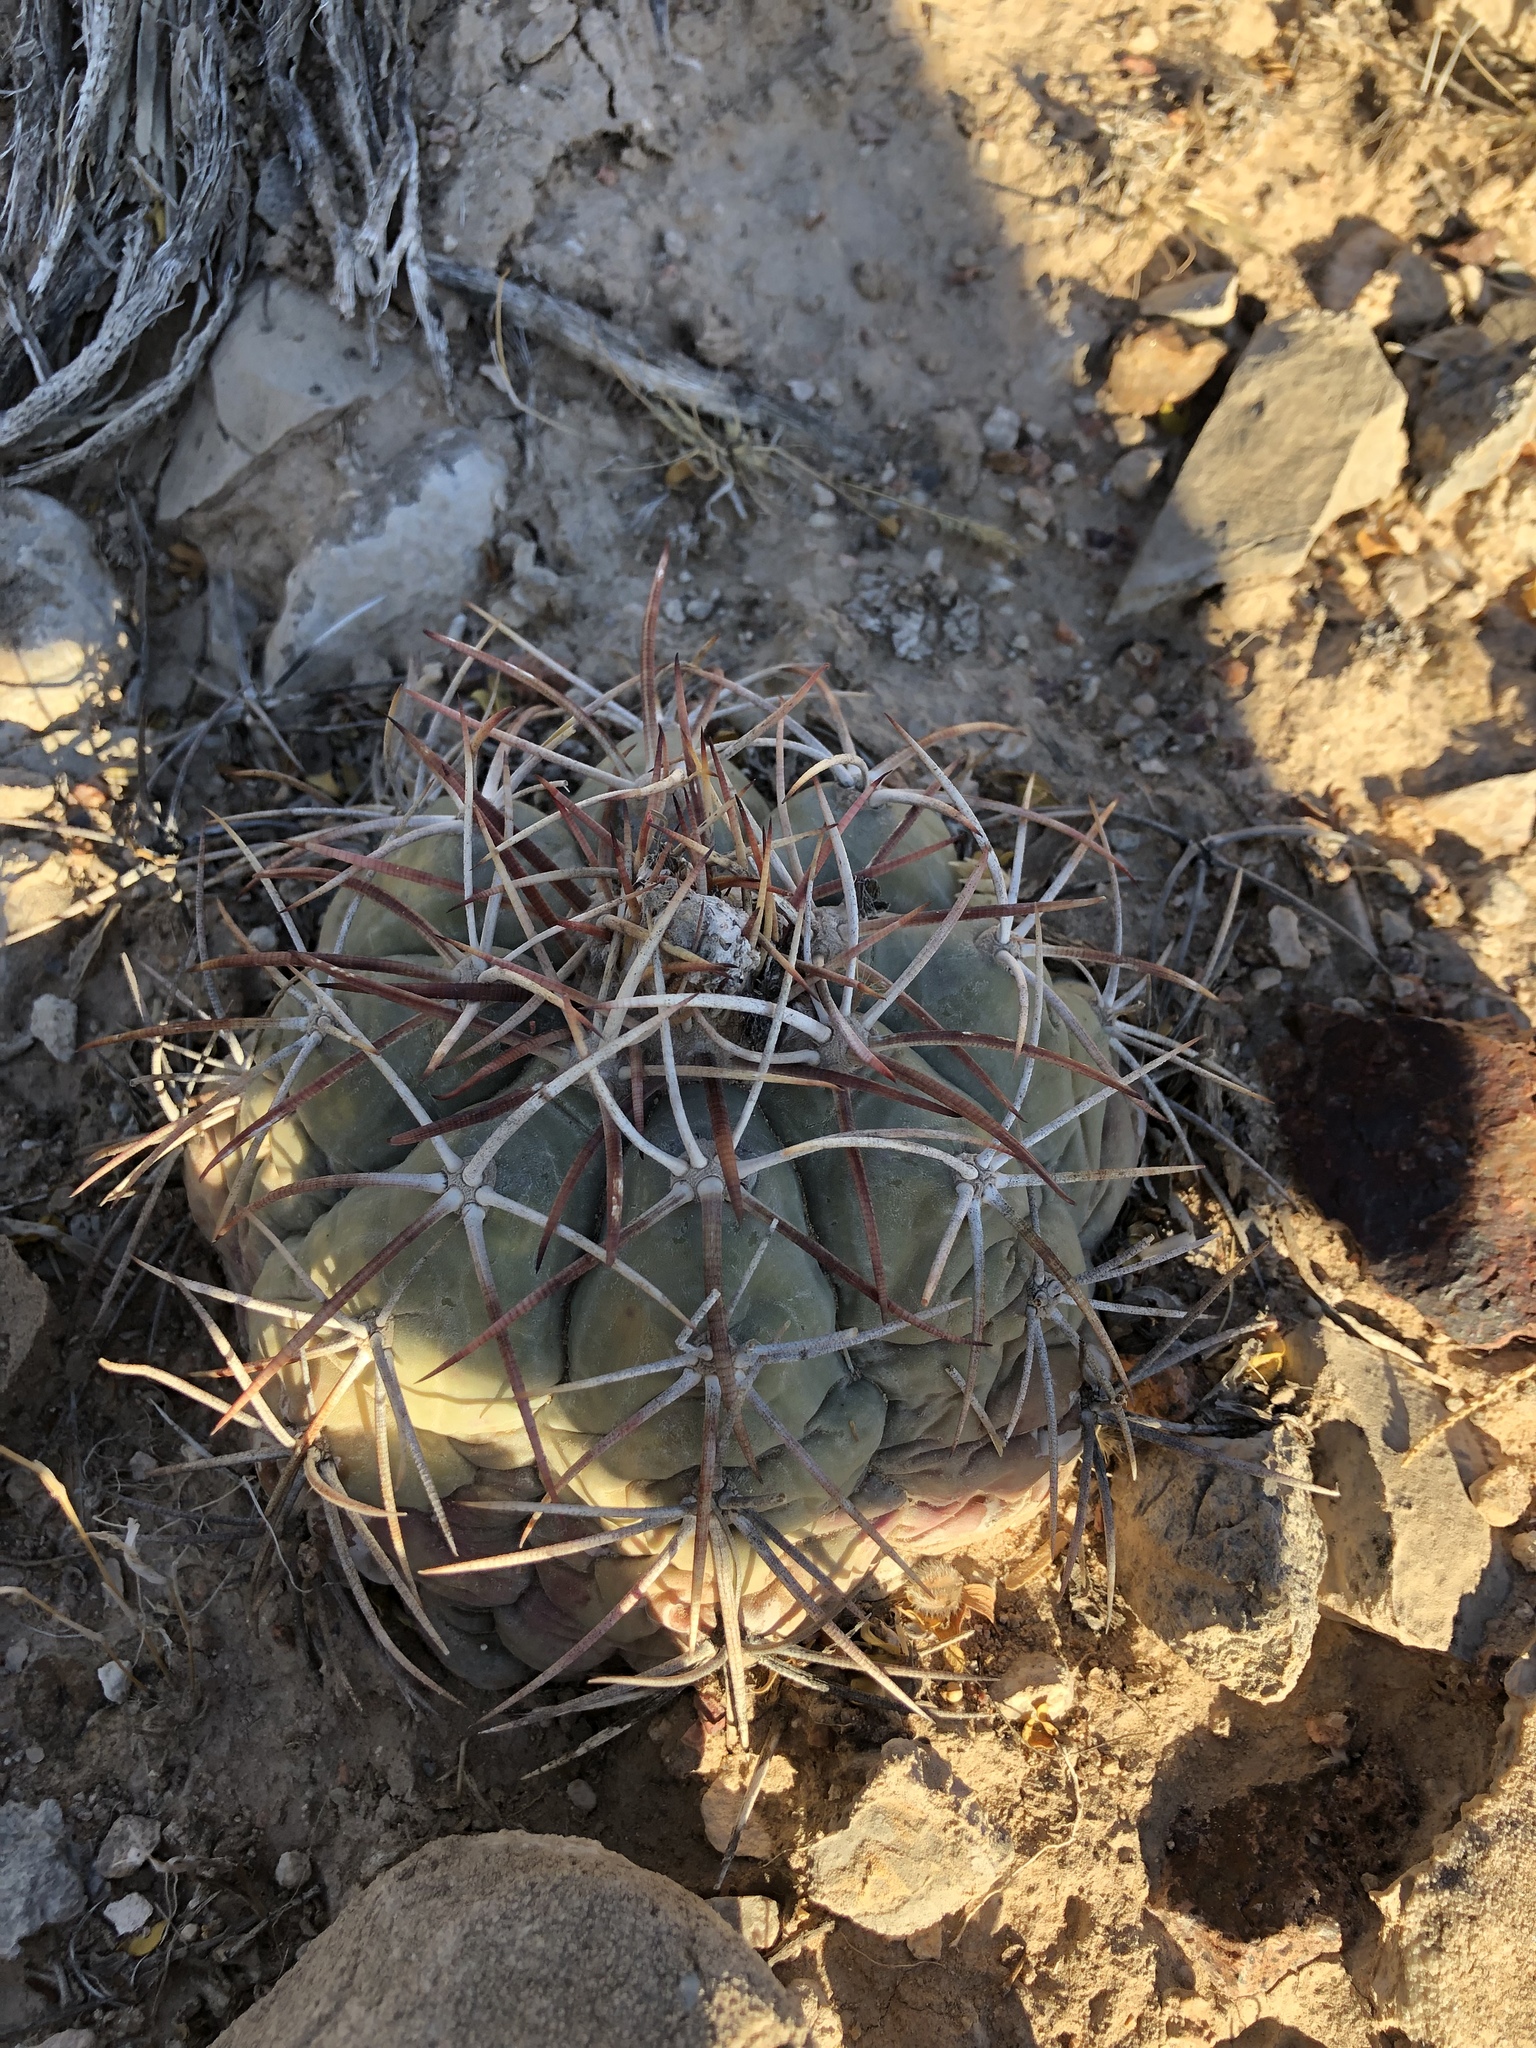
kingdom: Plantae
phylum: Tracheophyta
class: Magnoliopsida
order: Caryophyllales
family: Cactaceae
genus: Echinocactus
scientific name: Echinocactus horizonthalonius
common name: Devilshead
